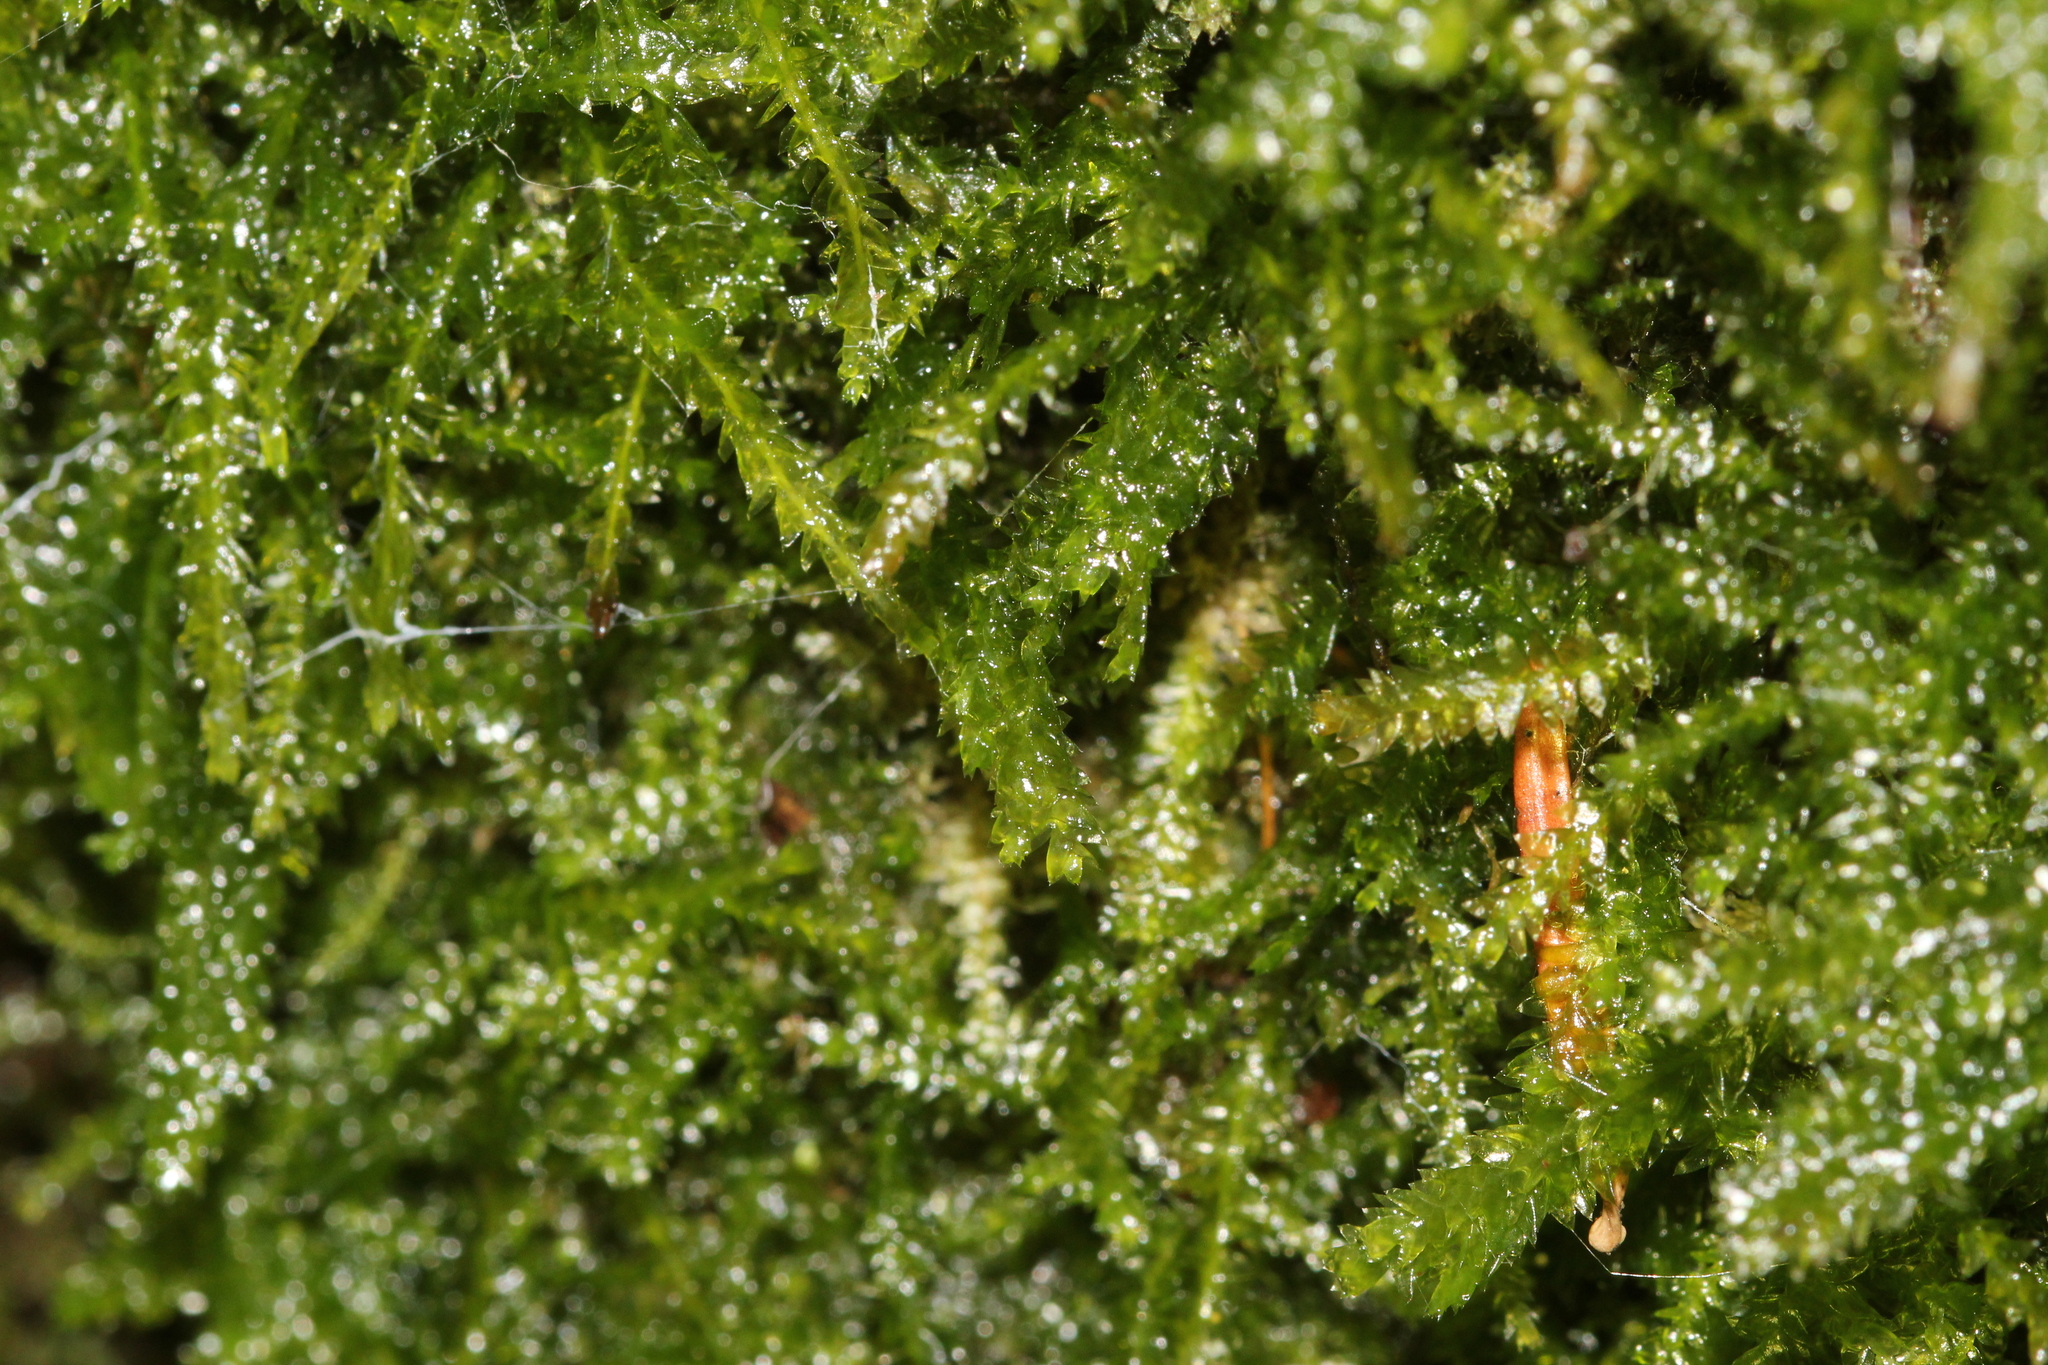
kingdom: Plantae
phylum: Bryophyta
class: Bryopsida
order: Hypnales
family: Plagiotheciaceae
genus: Plagiothecium
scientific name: Plagiothecium denticulatum
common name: Dented silk moss
